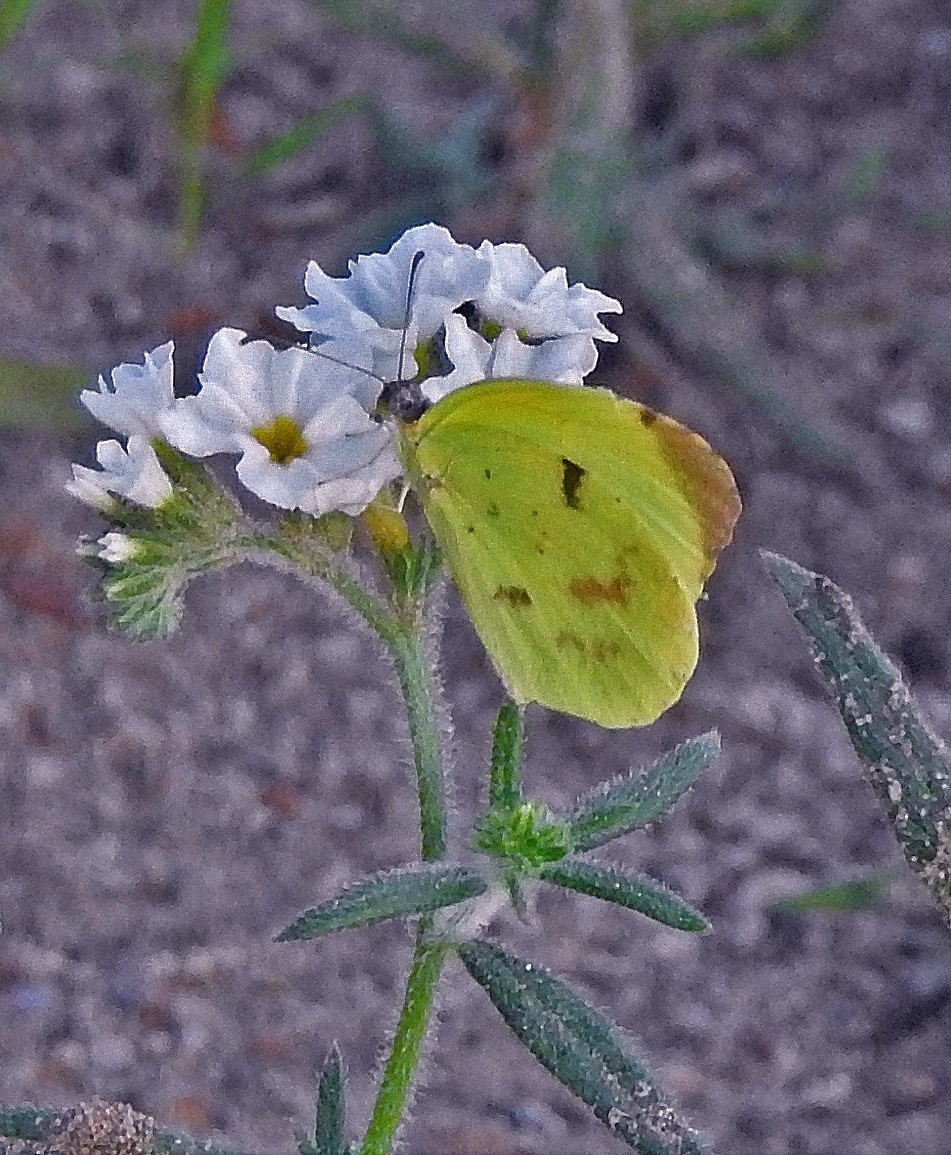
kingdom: Animalia
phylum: Arthropoda
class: Insecta
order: Lepidoptera
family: Pieridae
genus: Teriocolias
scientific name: Teriocolias
